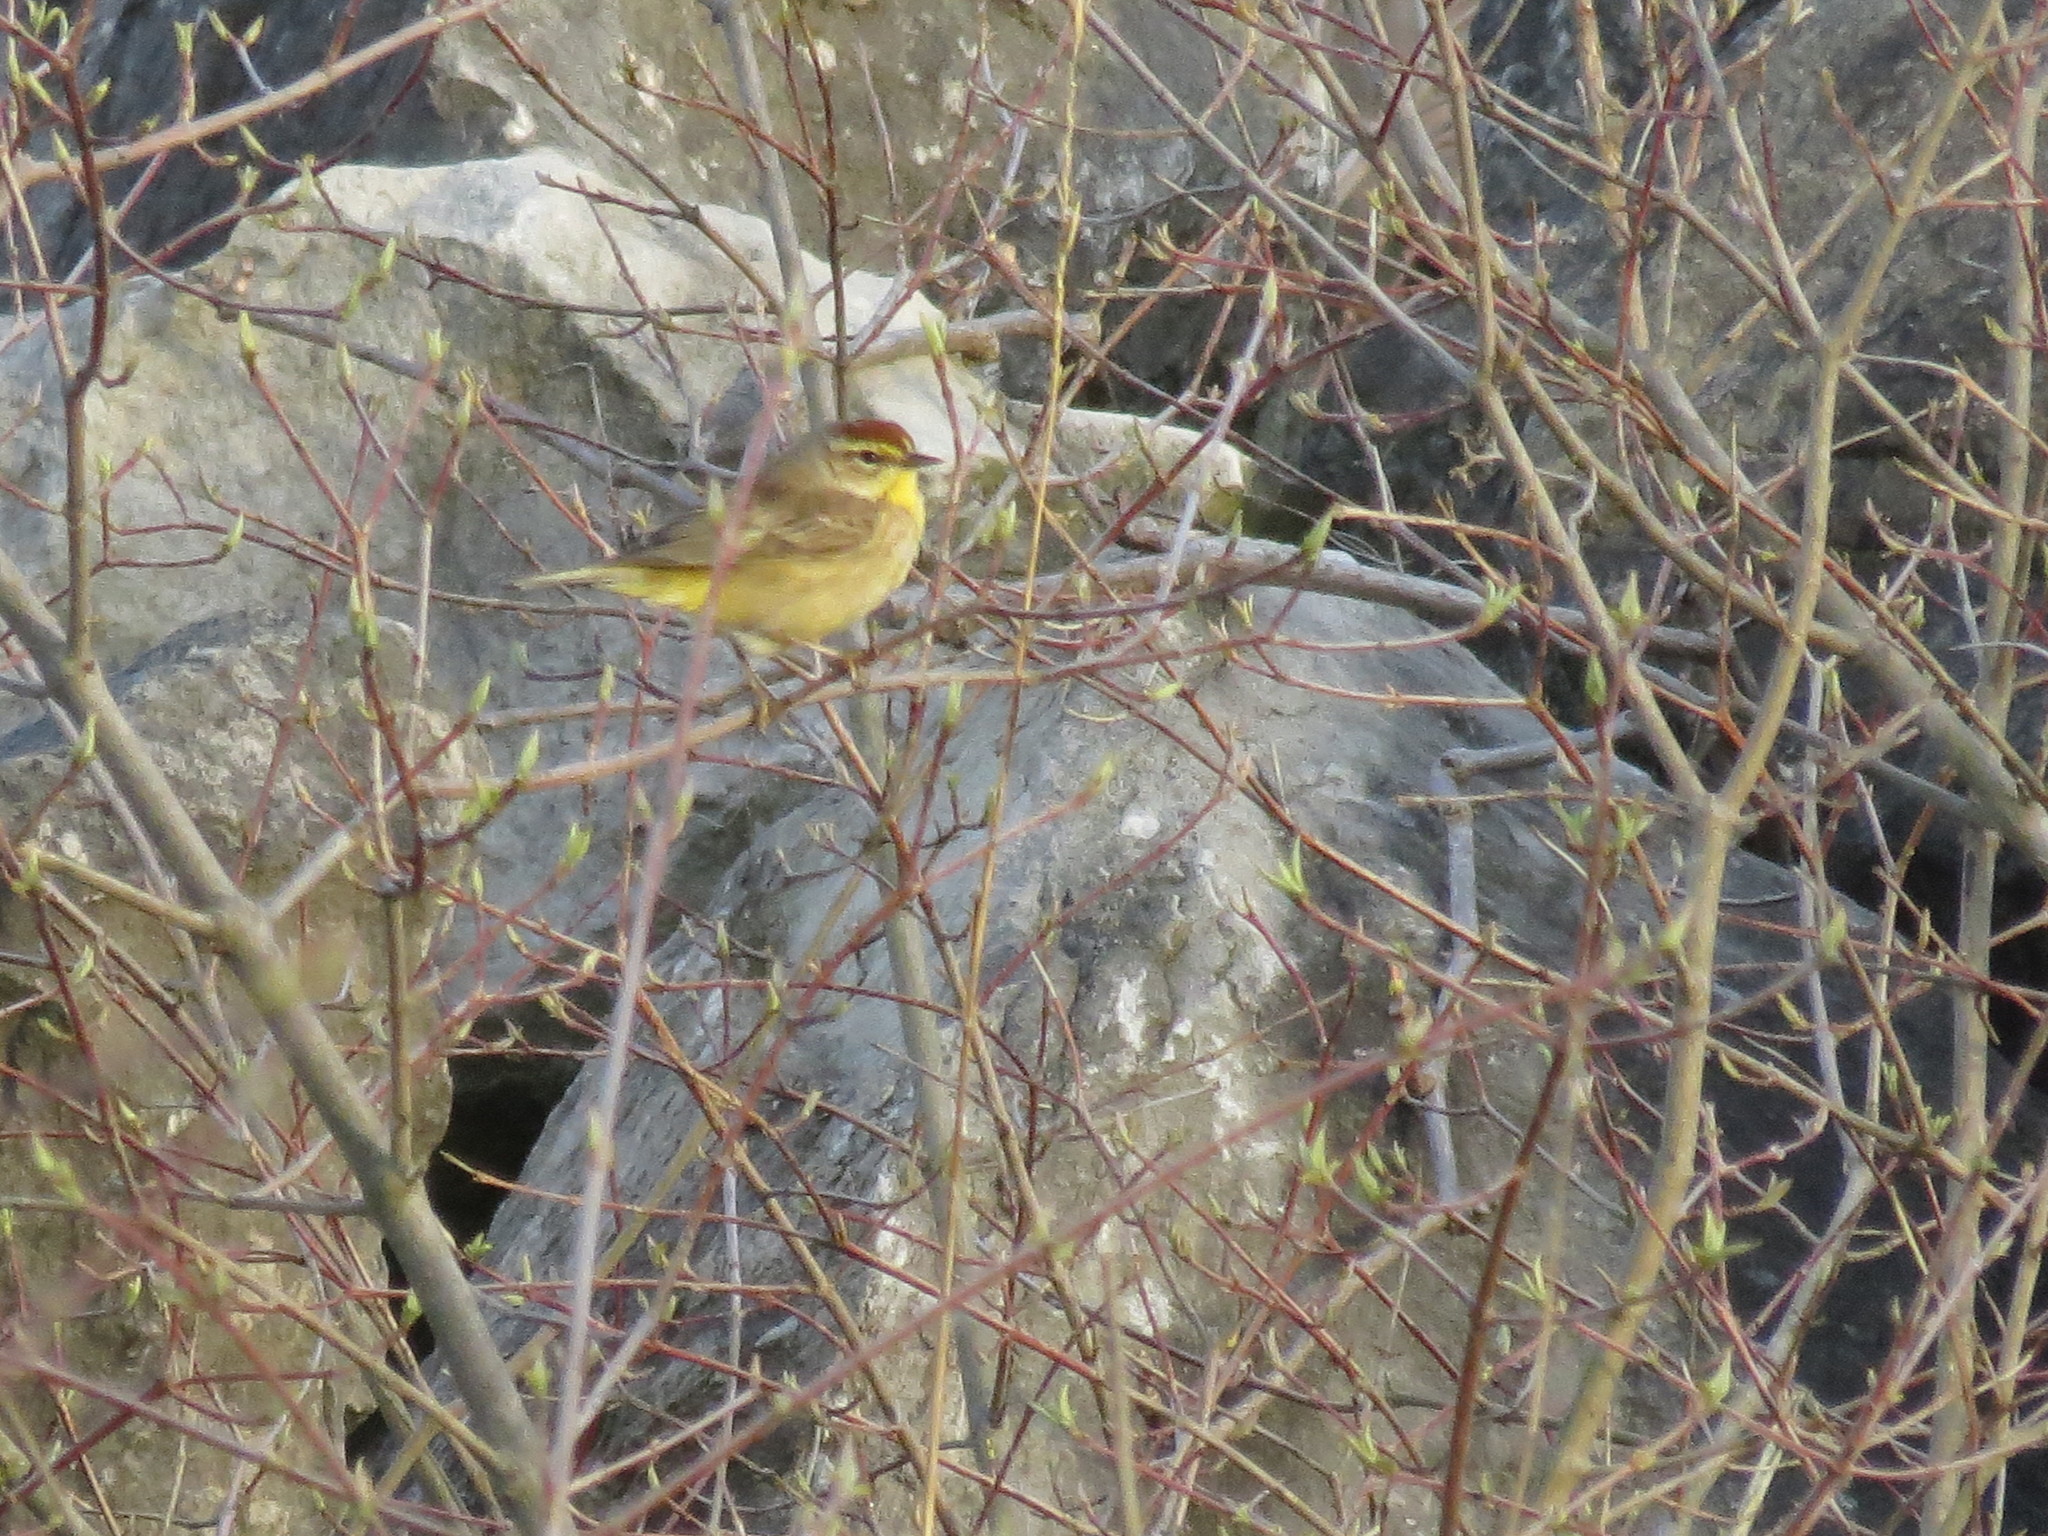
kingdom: Animalia
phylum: Chordata
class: Aves
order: Passeriformes
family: Parulidae
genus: Setophaga
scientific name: Setophaga palmarum
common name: Palm warbler
